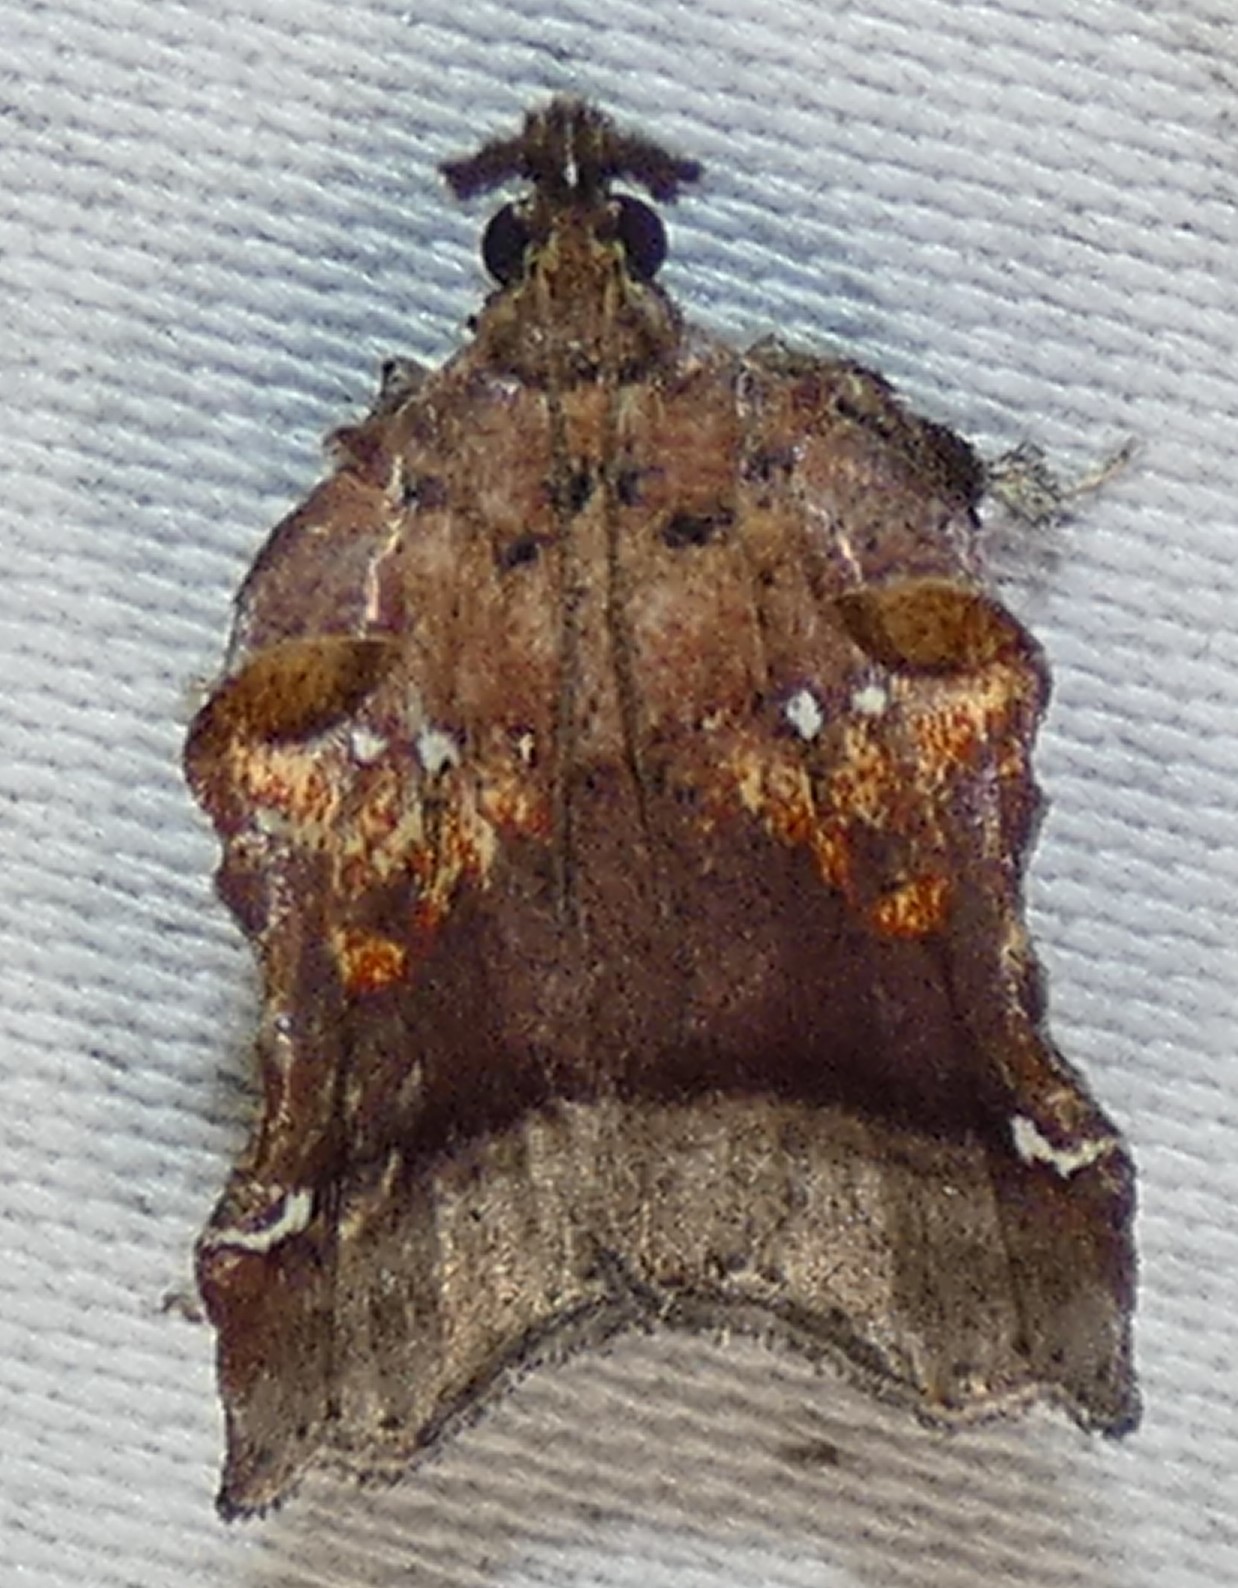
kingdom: Animalia
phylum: Arthropoda
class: Insecta
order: Lepidoptera
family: Pyralidae
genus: Clydonopteron
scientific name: Clydonopteron sacculana
